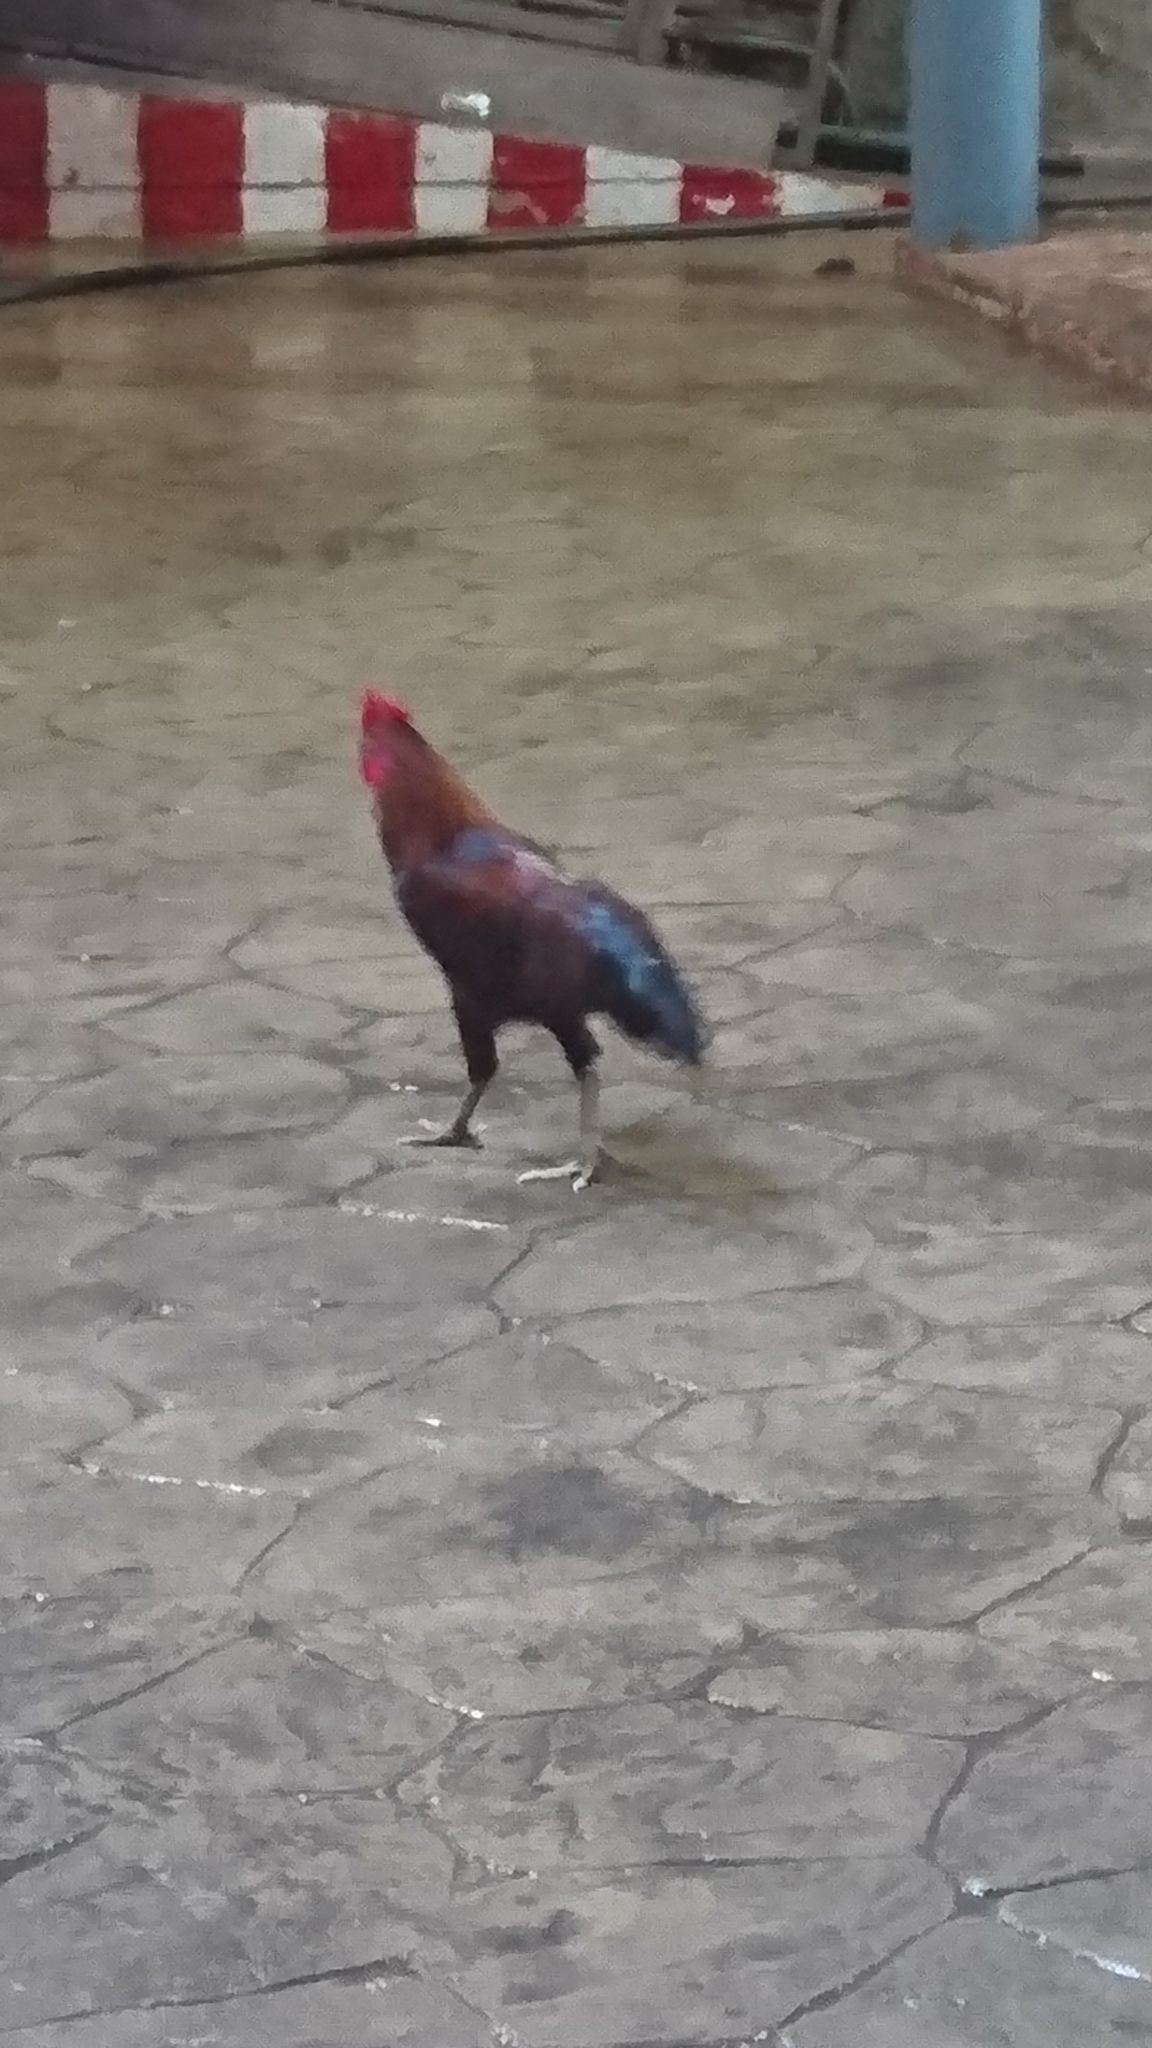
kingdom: Animalia
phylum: Chordata
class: Aves
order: Galliformes
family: Phasianidae
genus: Gallus
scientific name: Gallus gallus
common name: Red junglefowl
